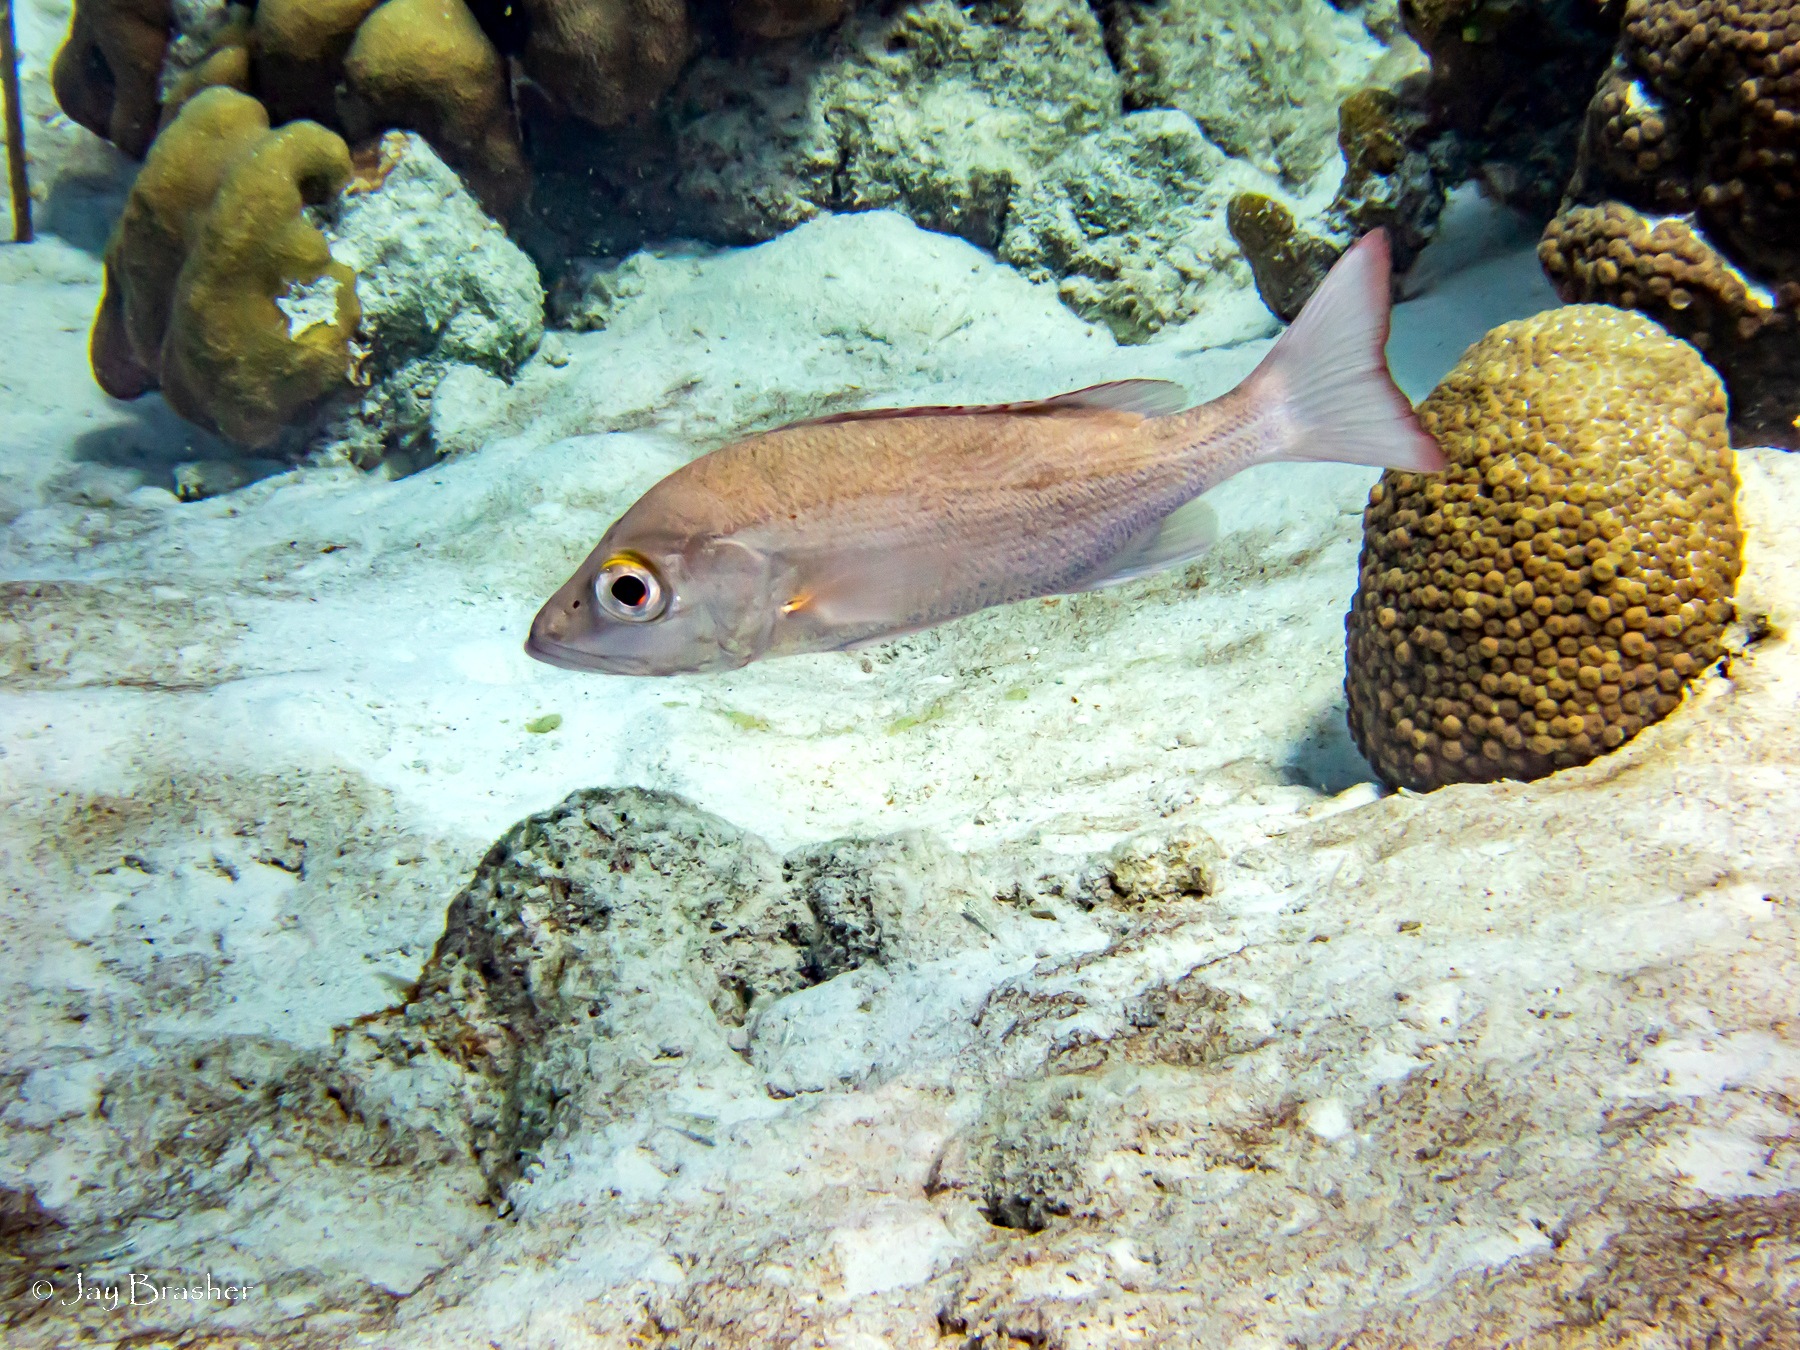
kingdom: Animalia
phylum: Chordata
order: Perciformes
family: Lutjanidae
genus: Lutjanus
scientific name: Lutjanus mahogoni
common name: Spot snapper
